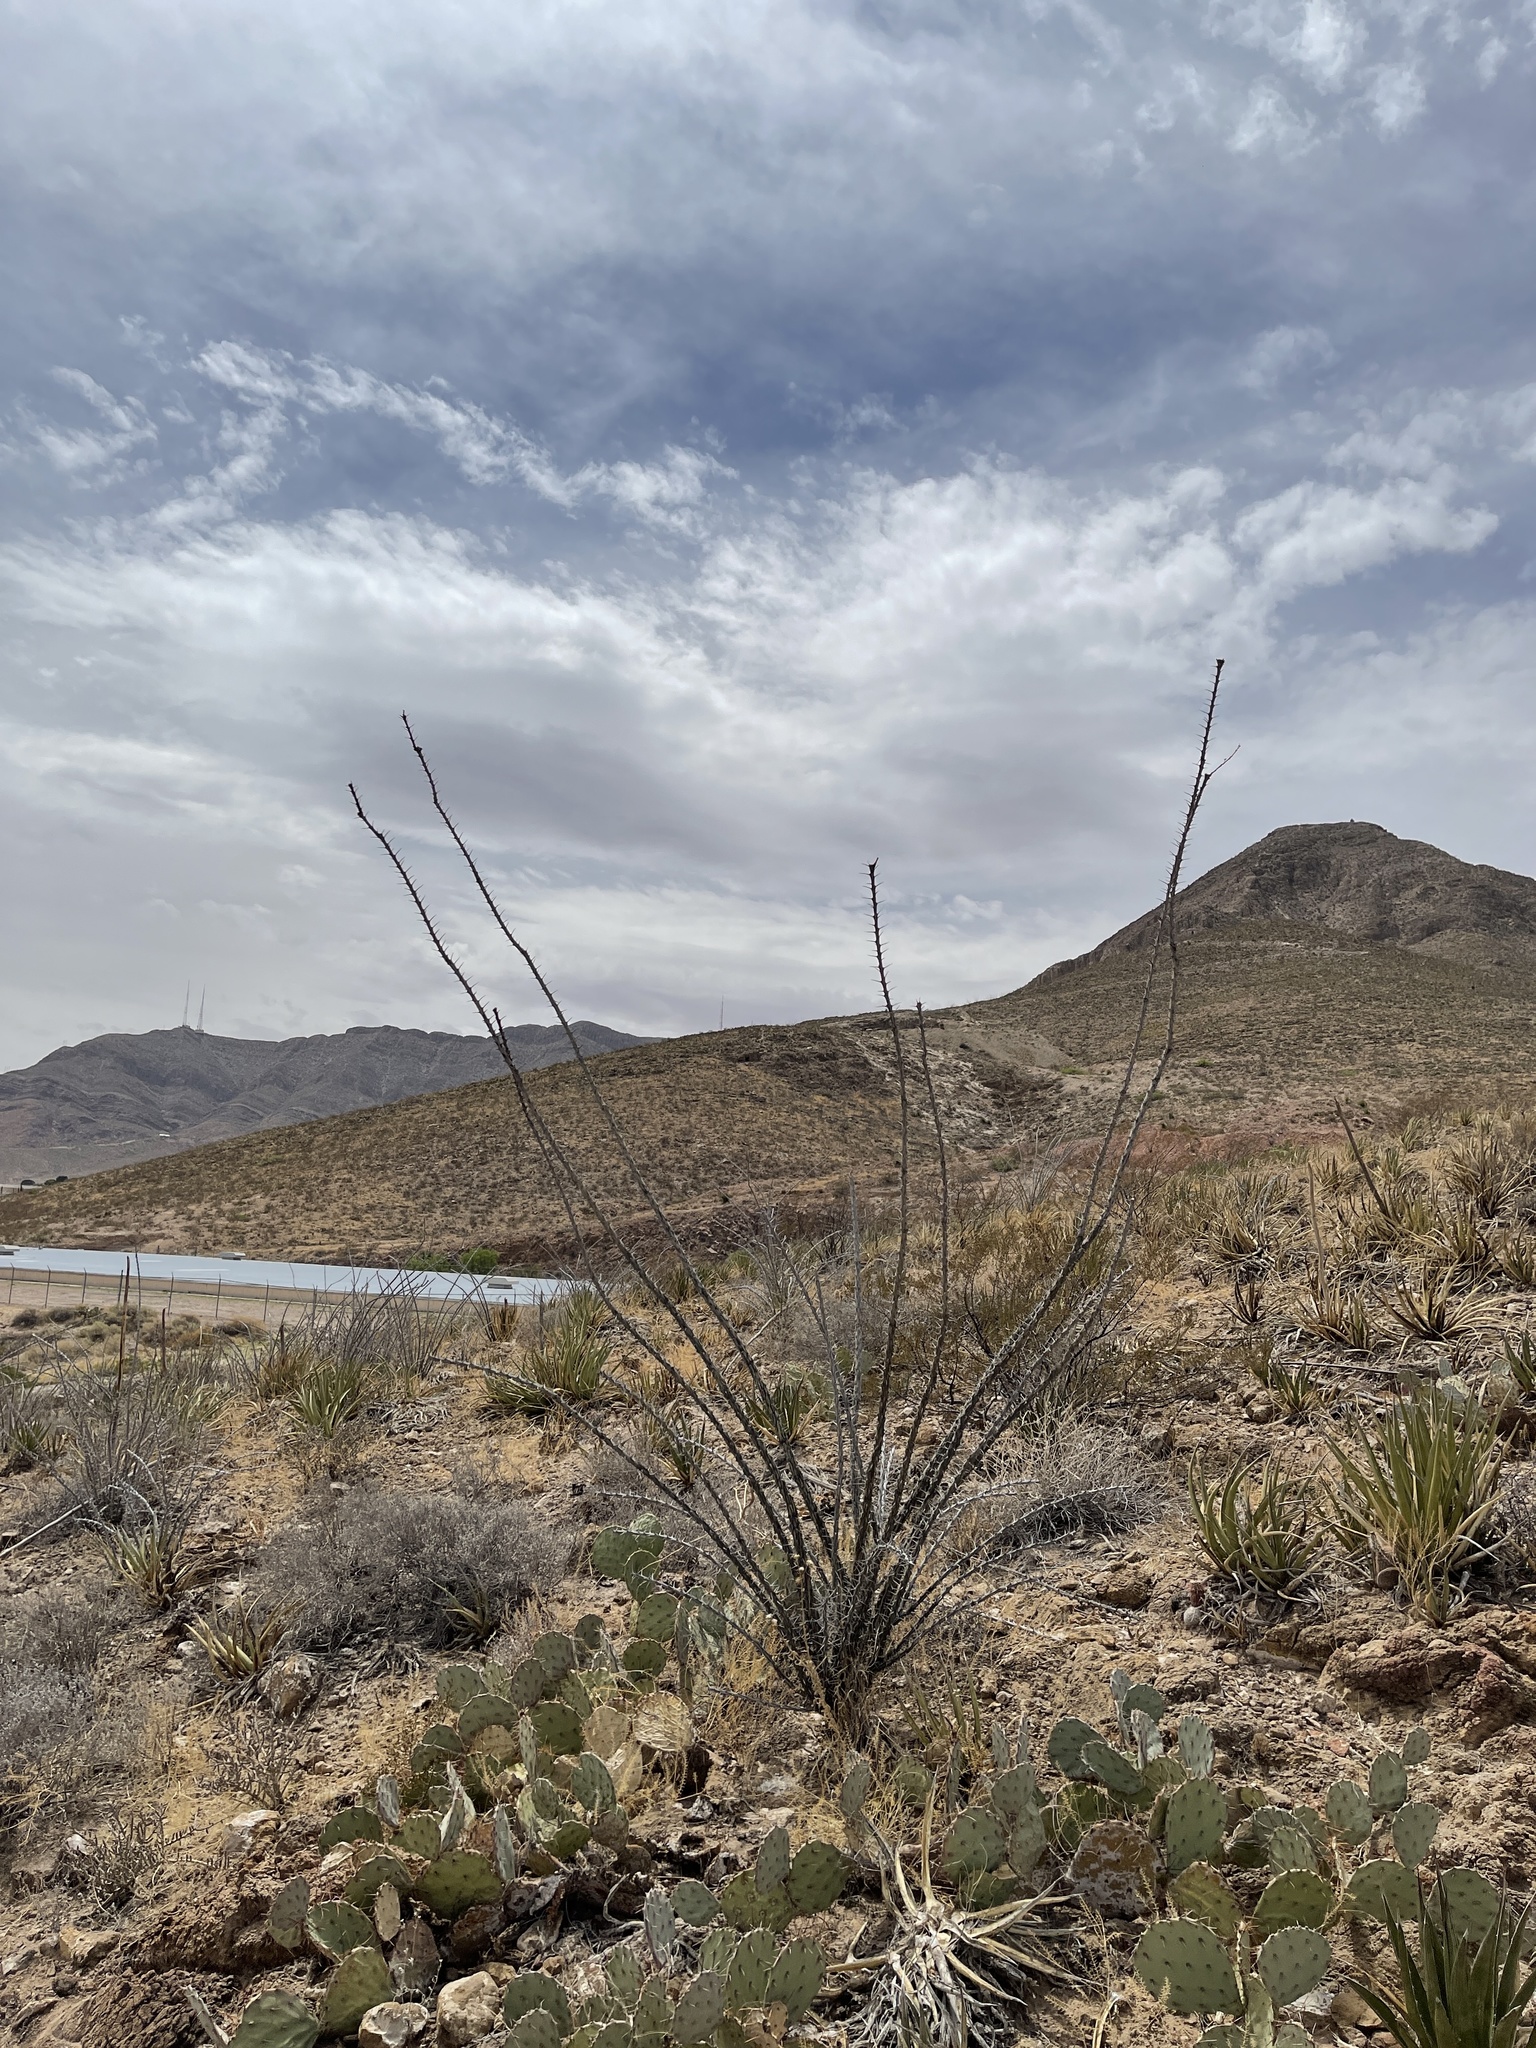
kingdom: Plantae
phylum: Tracheophyta
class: Magnoliopsida
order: Ericales
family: Fouquieriaceae
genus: Fouquieria
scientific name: Fouquieria splendens
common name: Vine-cactus
